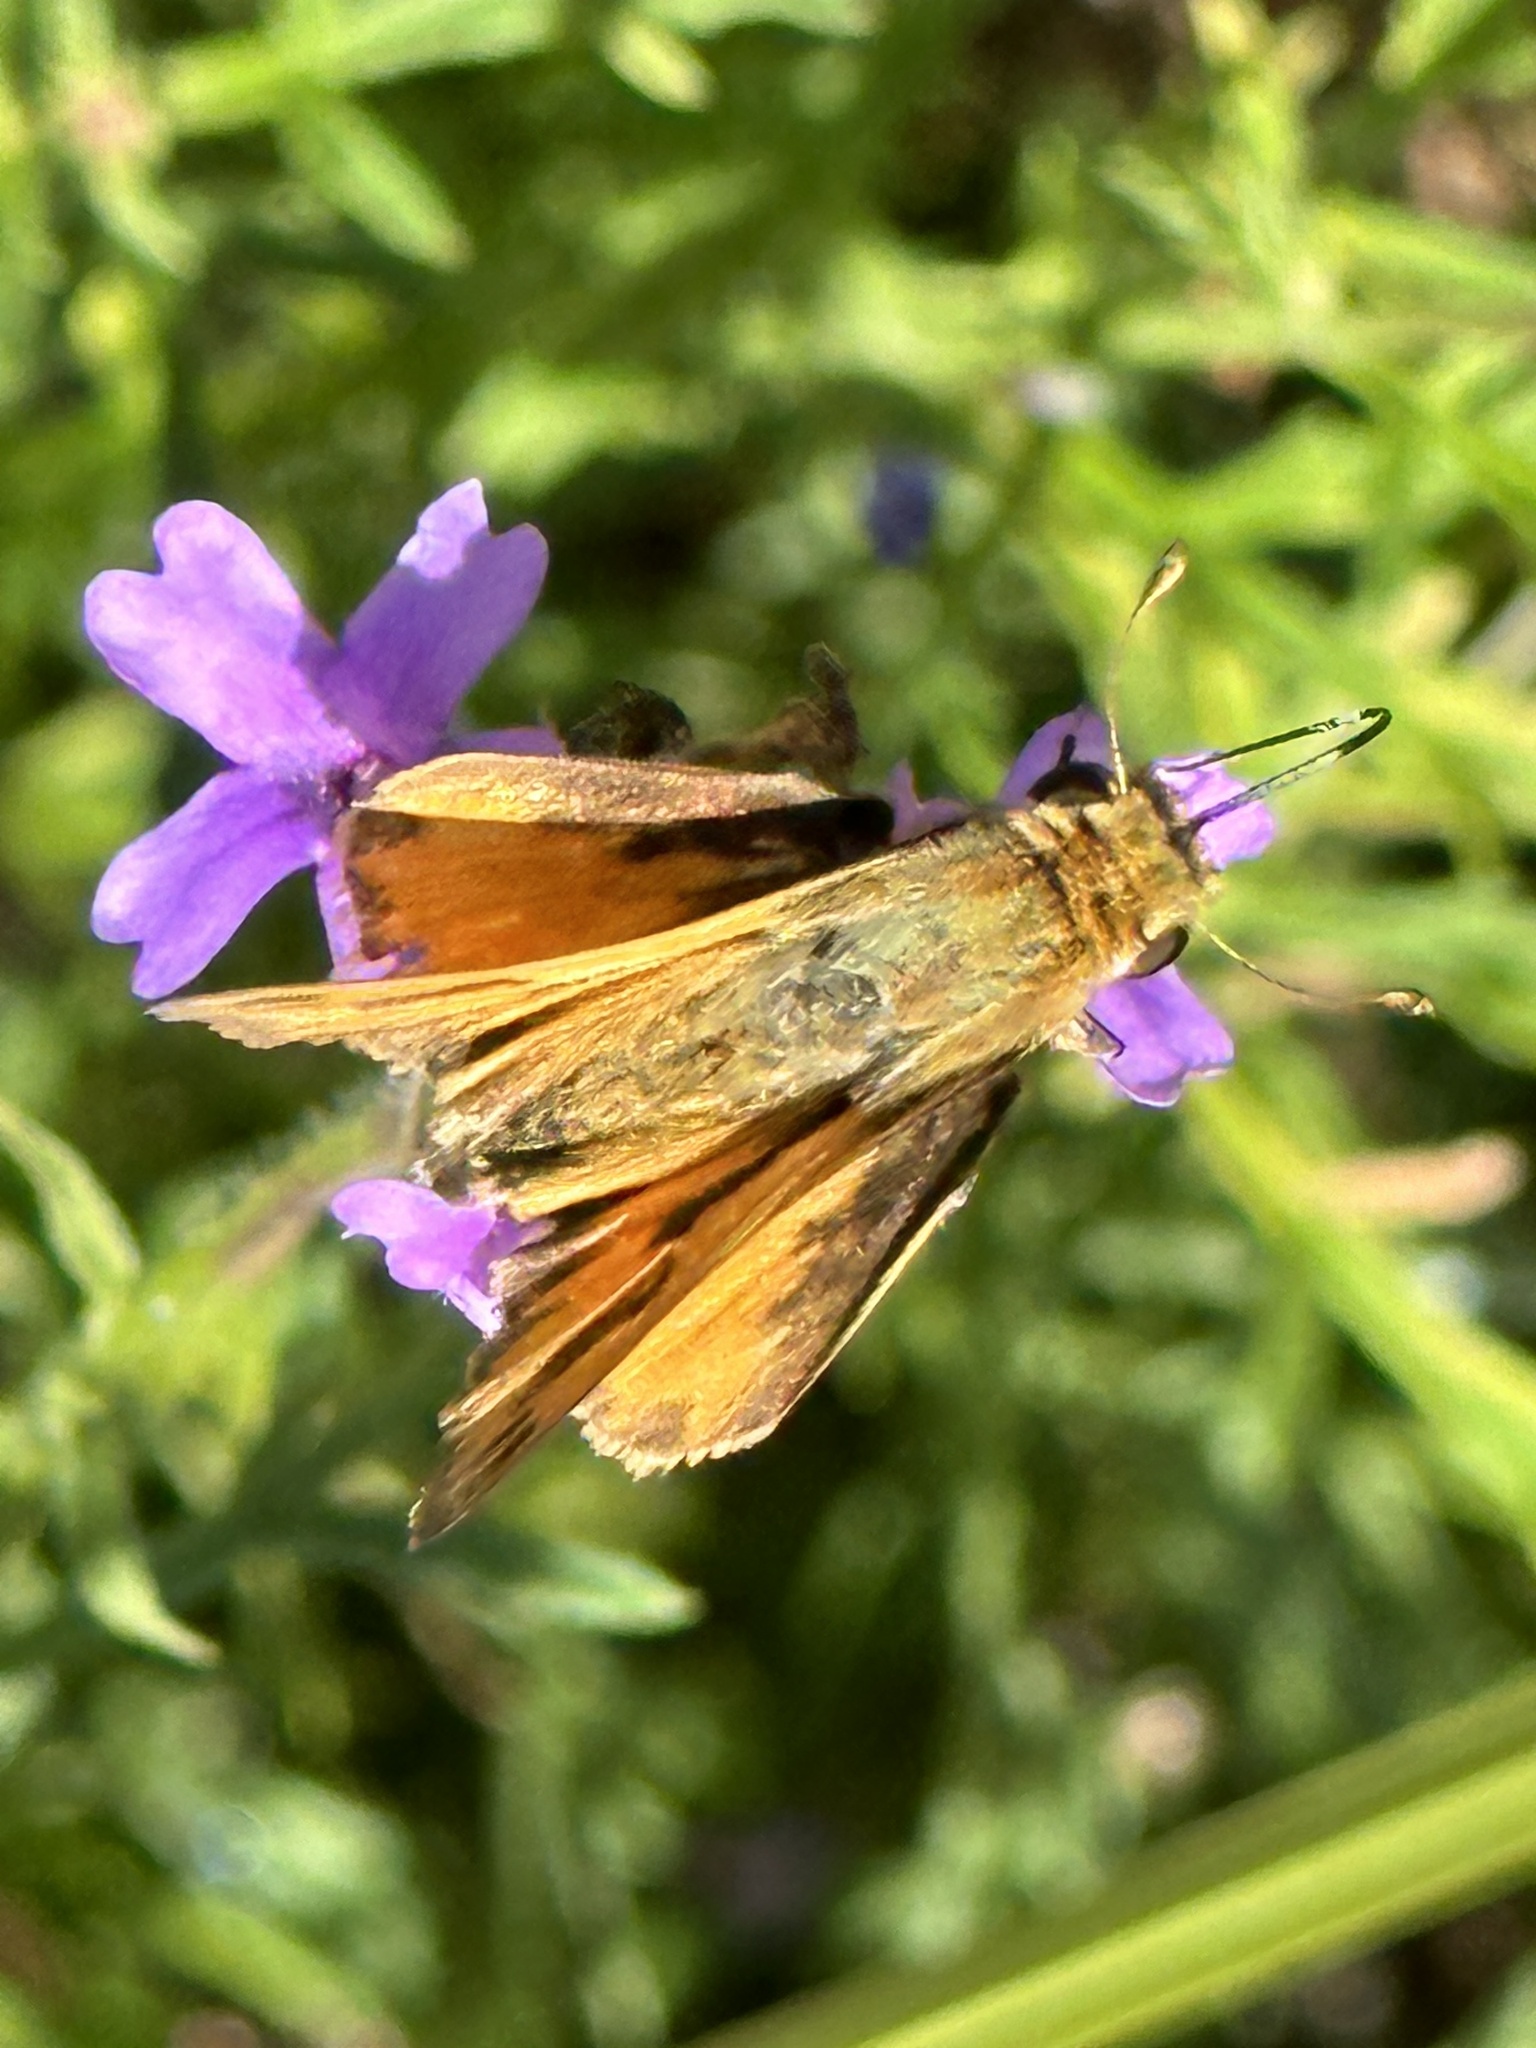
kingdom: Animalia
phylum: Arthropoda
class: Insecta
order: Lepidoptera
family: Hesperiidae
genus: Hylephila
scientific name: Hylephila phyleus
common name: Fiery skipper
